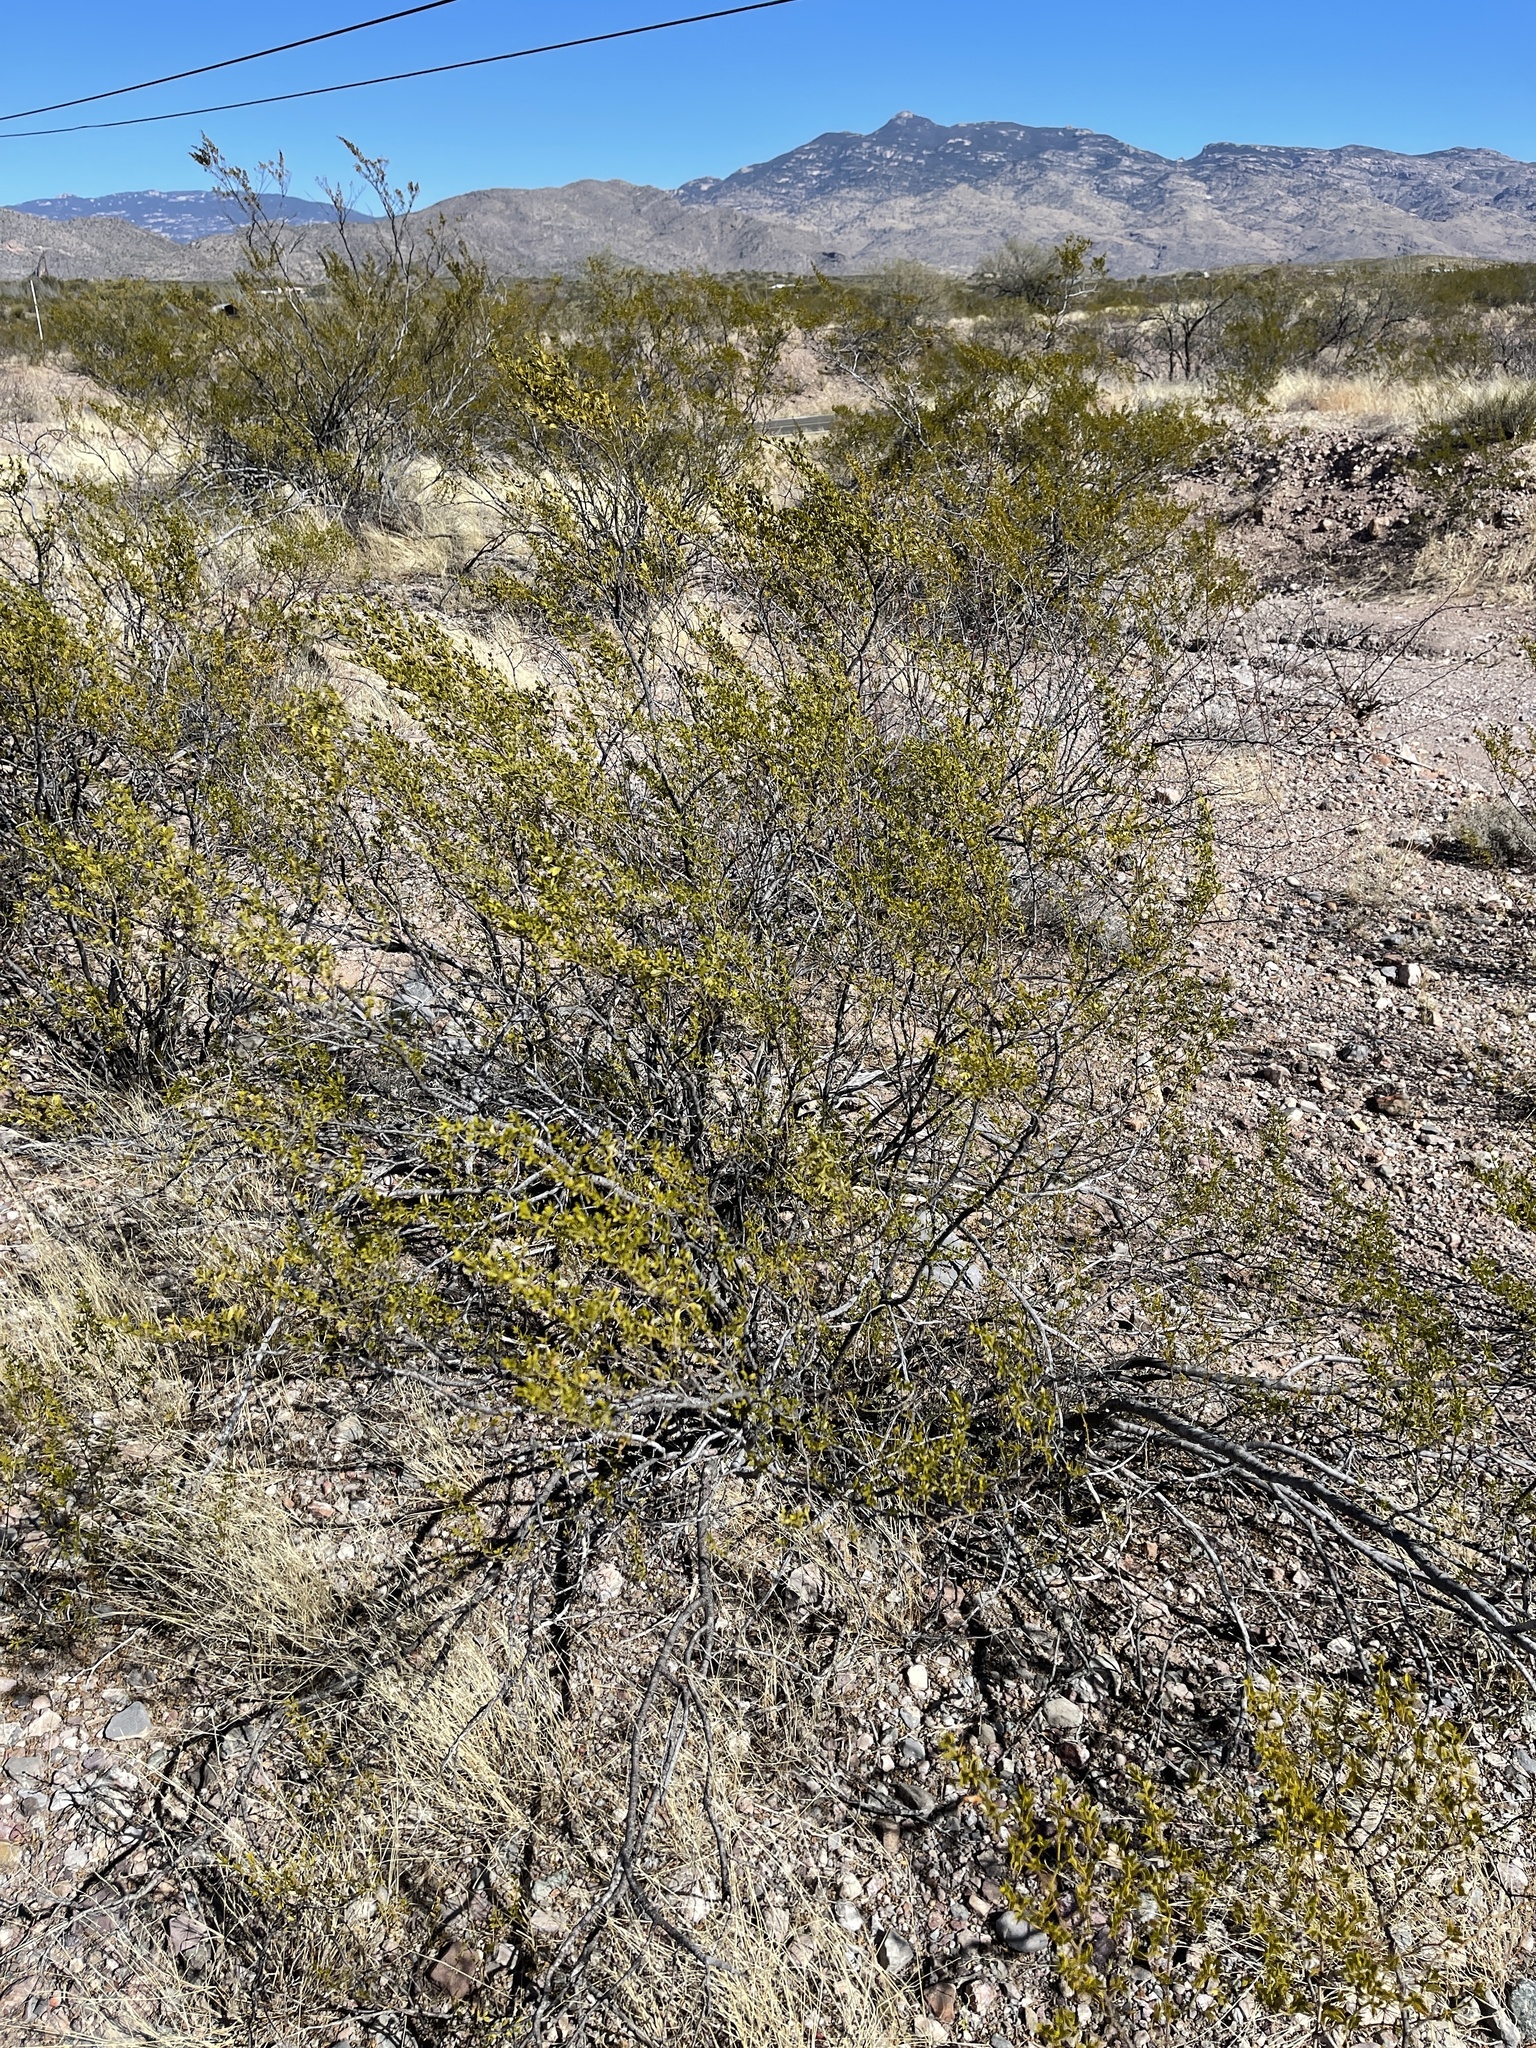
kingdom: Plantae
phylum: Tracheophyta
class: Magnoliopsida
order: Zygophyllales
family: Zygophyllaceae
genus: Larrea
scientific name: Larrea tridentata
